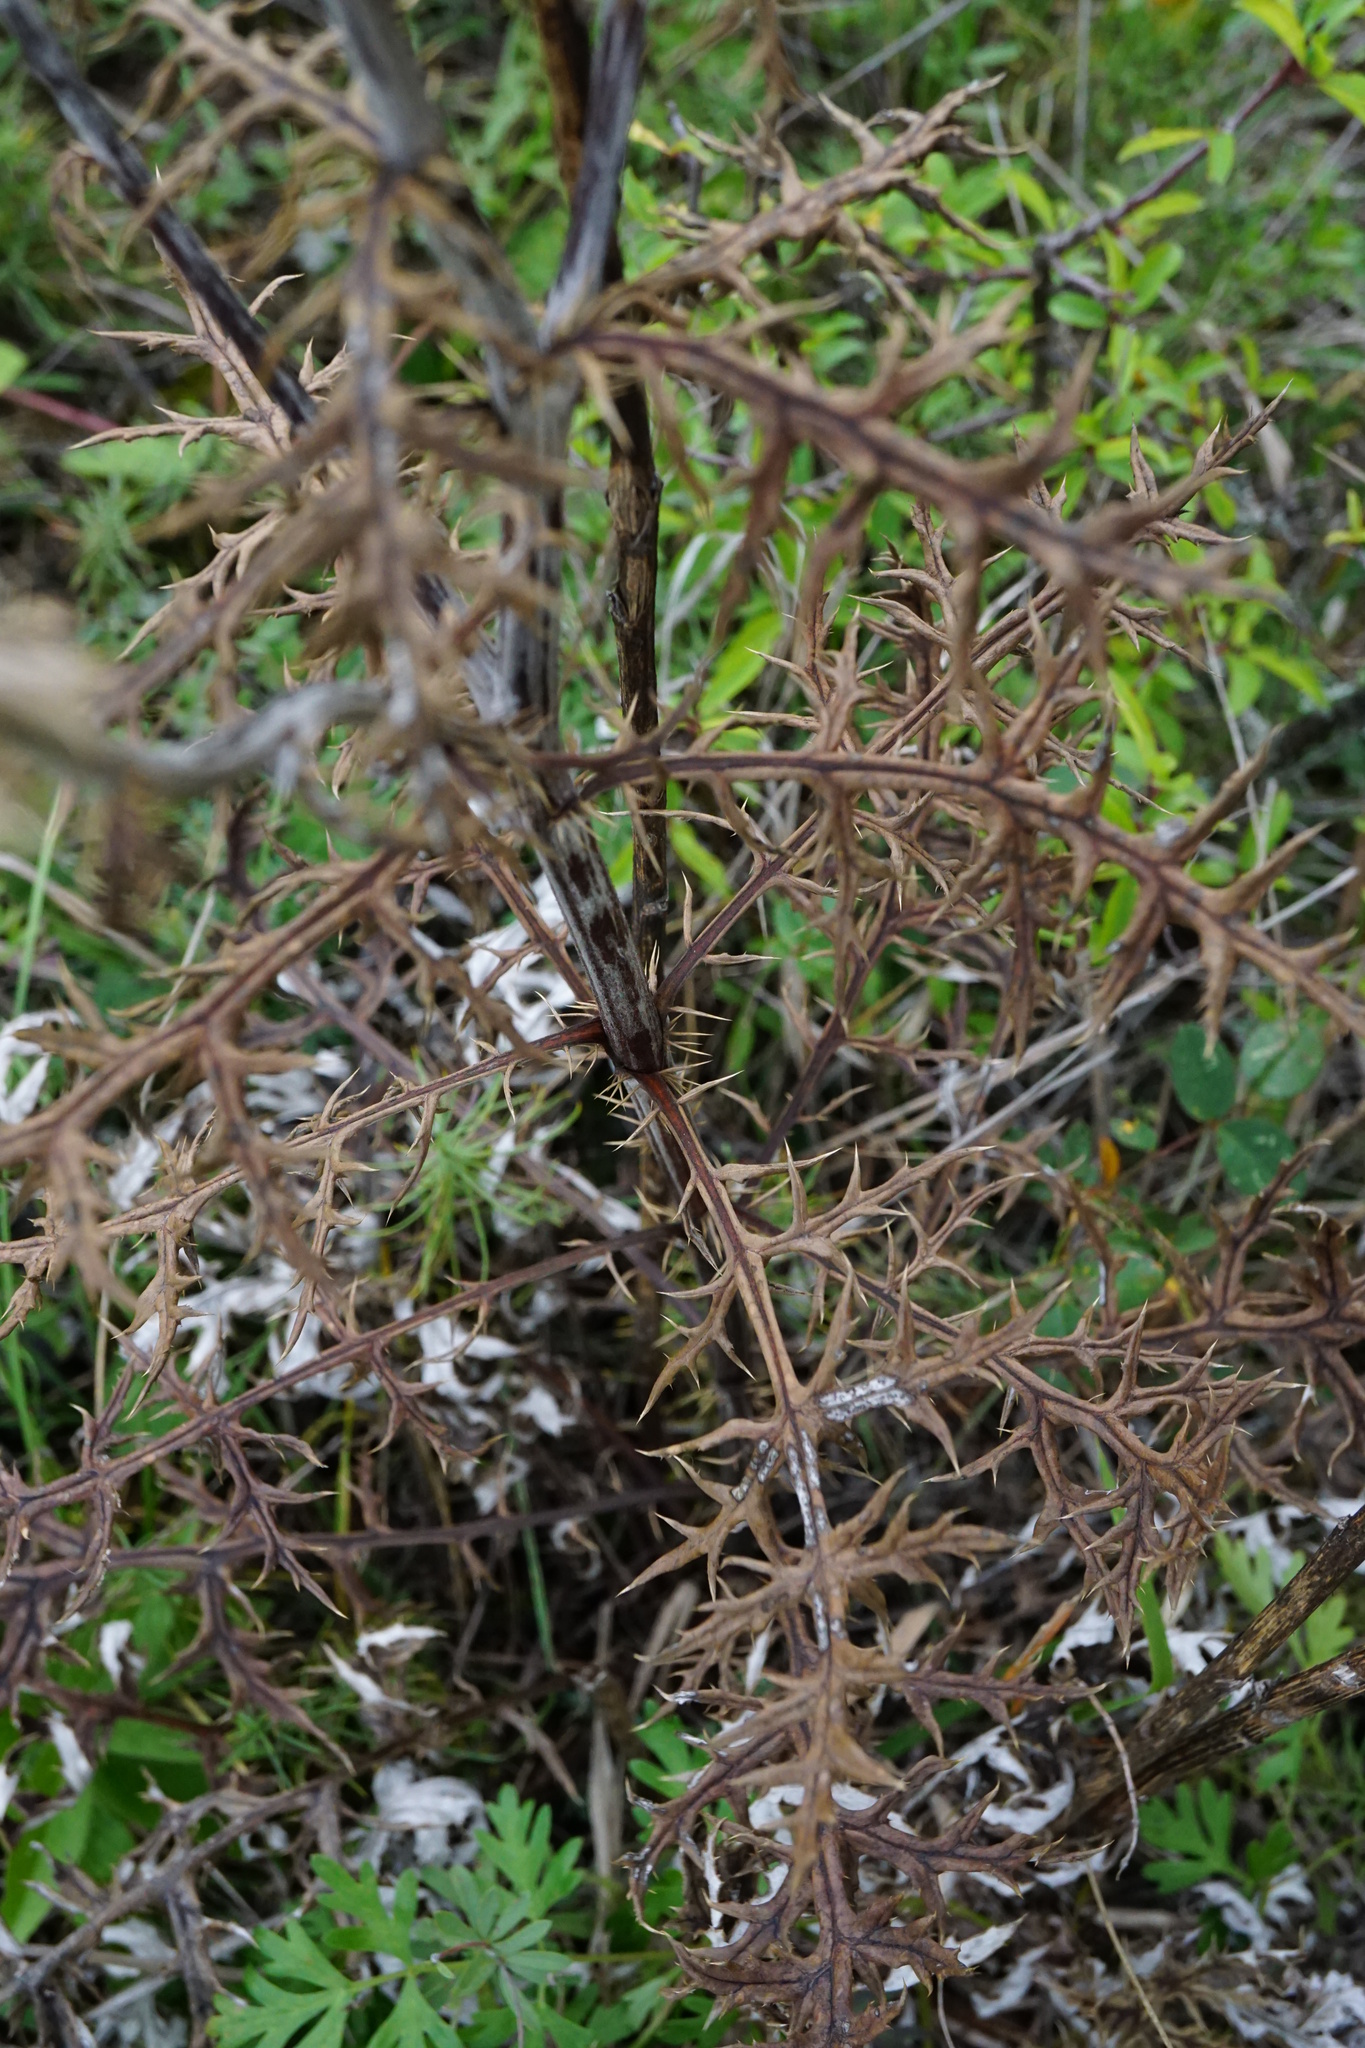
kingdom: Plantae
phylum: Tracheophyta
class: Magnoliopsida
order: Asterales
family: Asteraceae
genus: Echinops
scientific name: Echinops ritro
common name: Globe thistle
